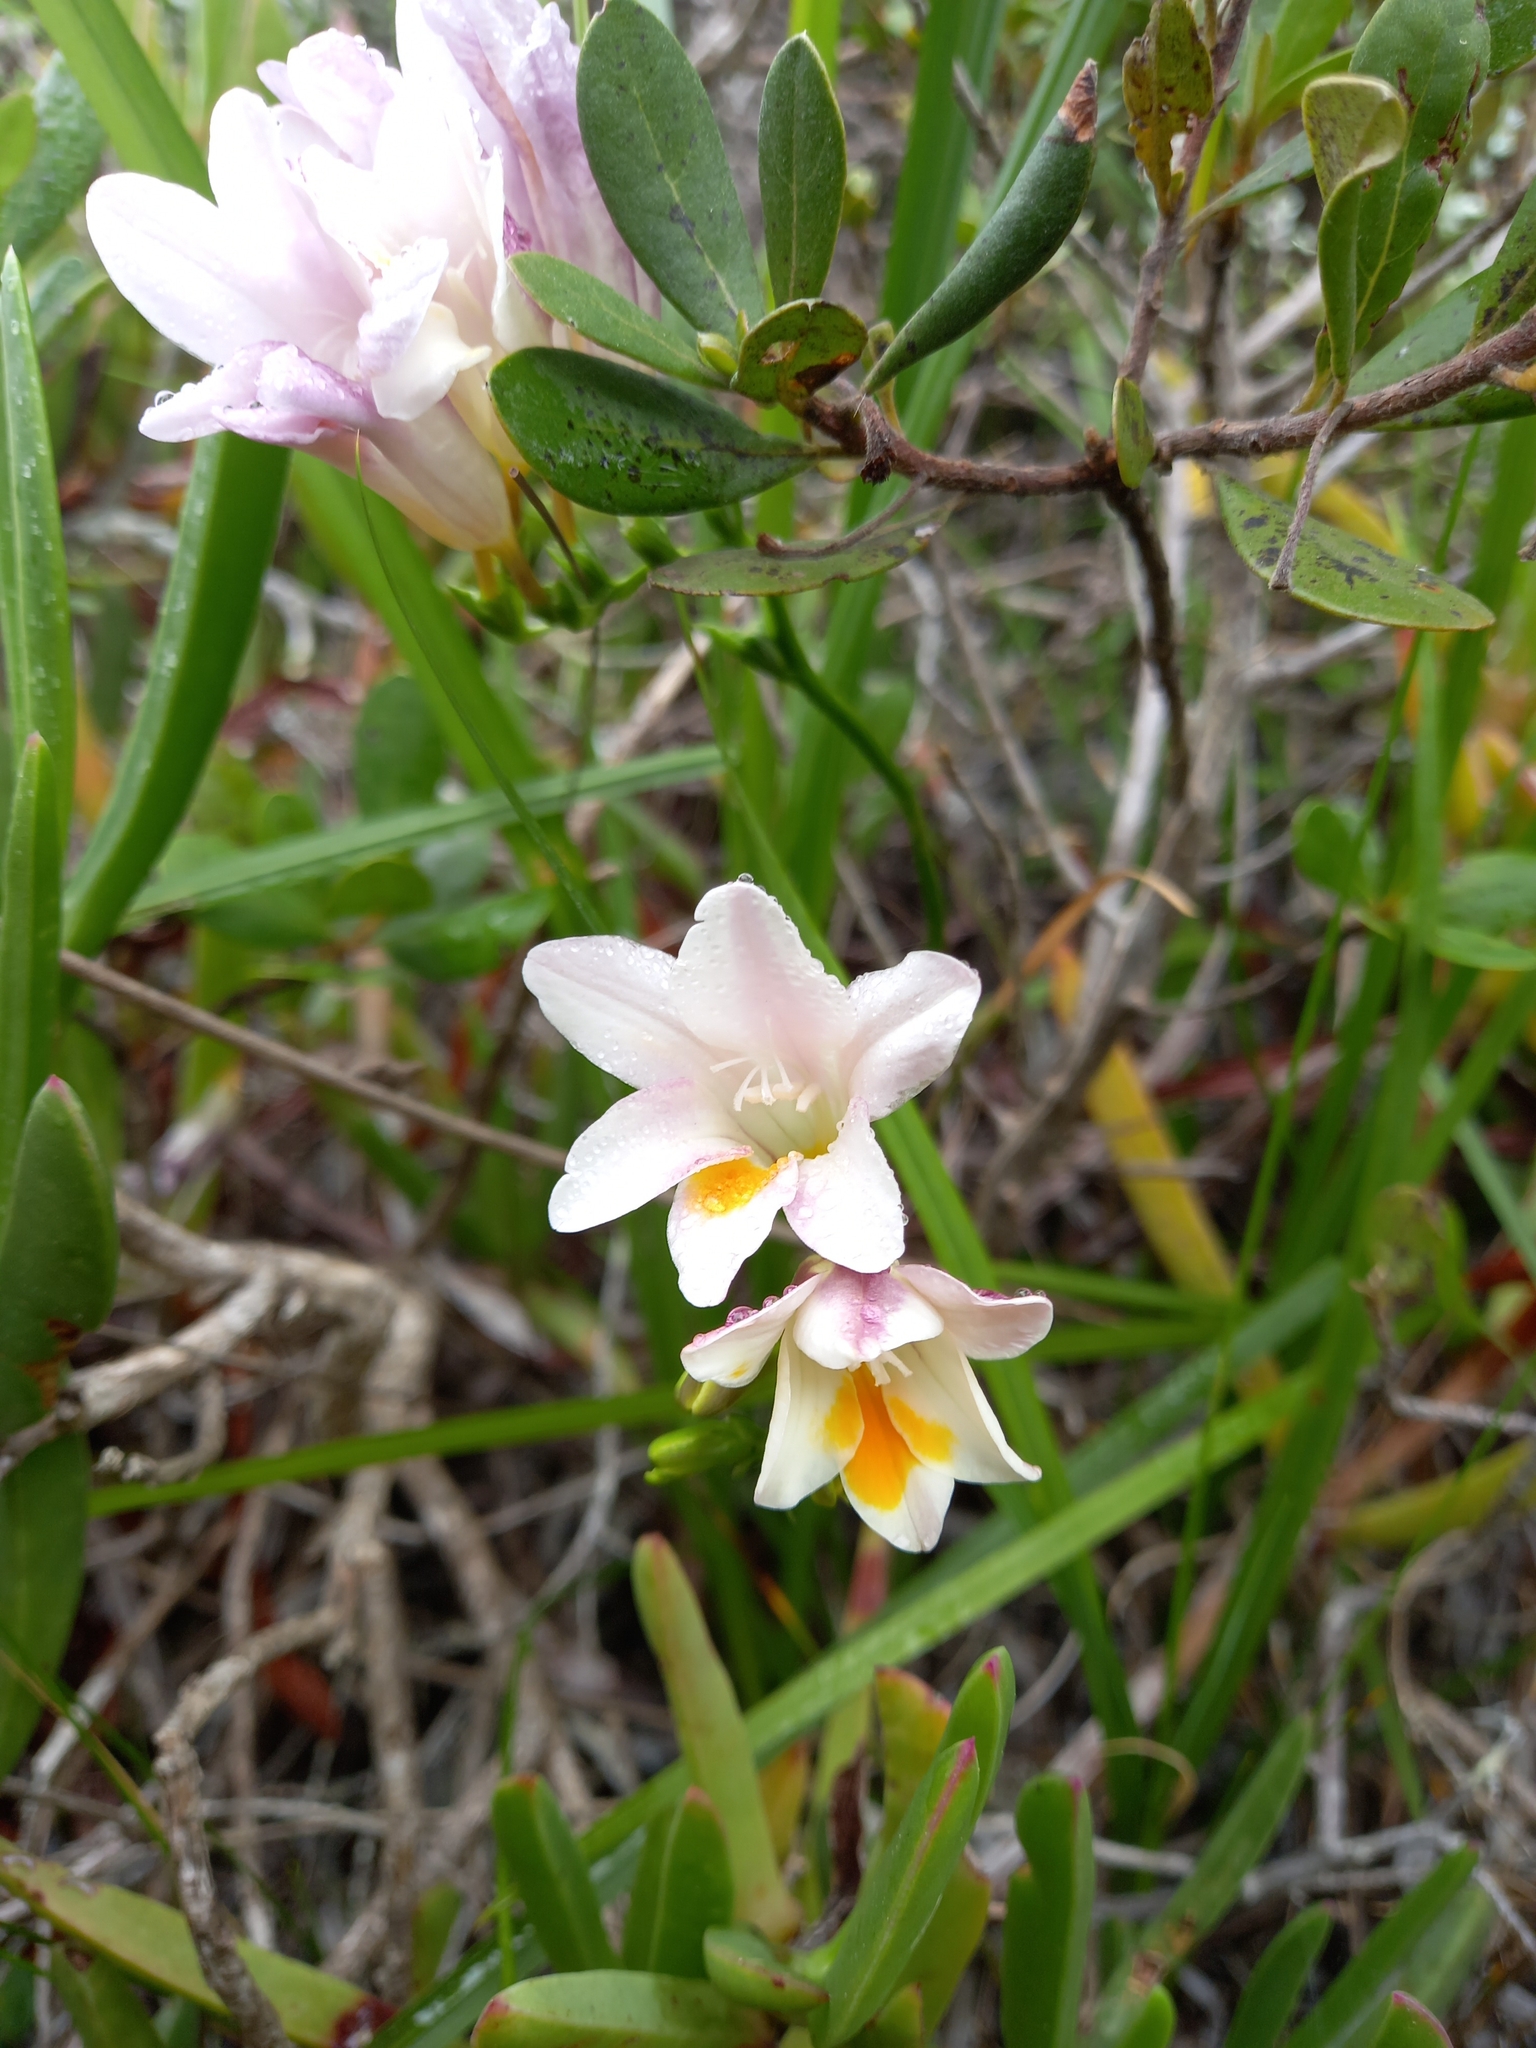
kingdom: Plantae
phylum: Tracheophyta
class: Liliopsida
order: Asparagales
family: Iridaceae
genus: Freesia
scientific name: Freesia leichtlinii
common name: Freesia
